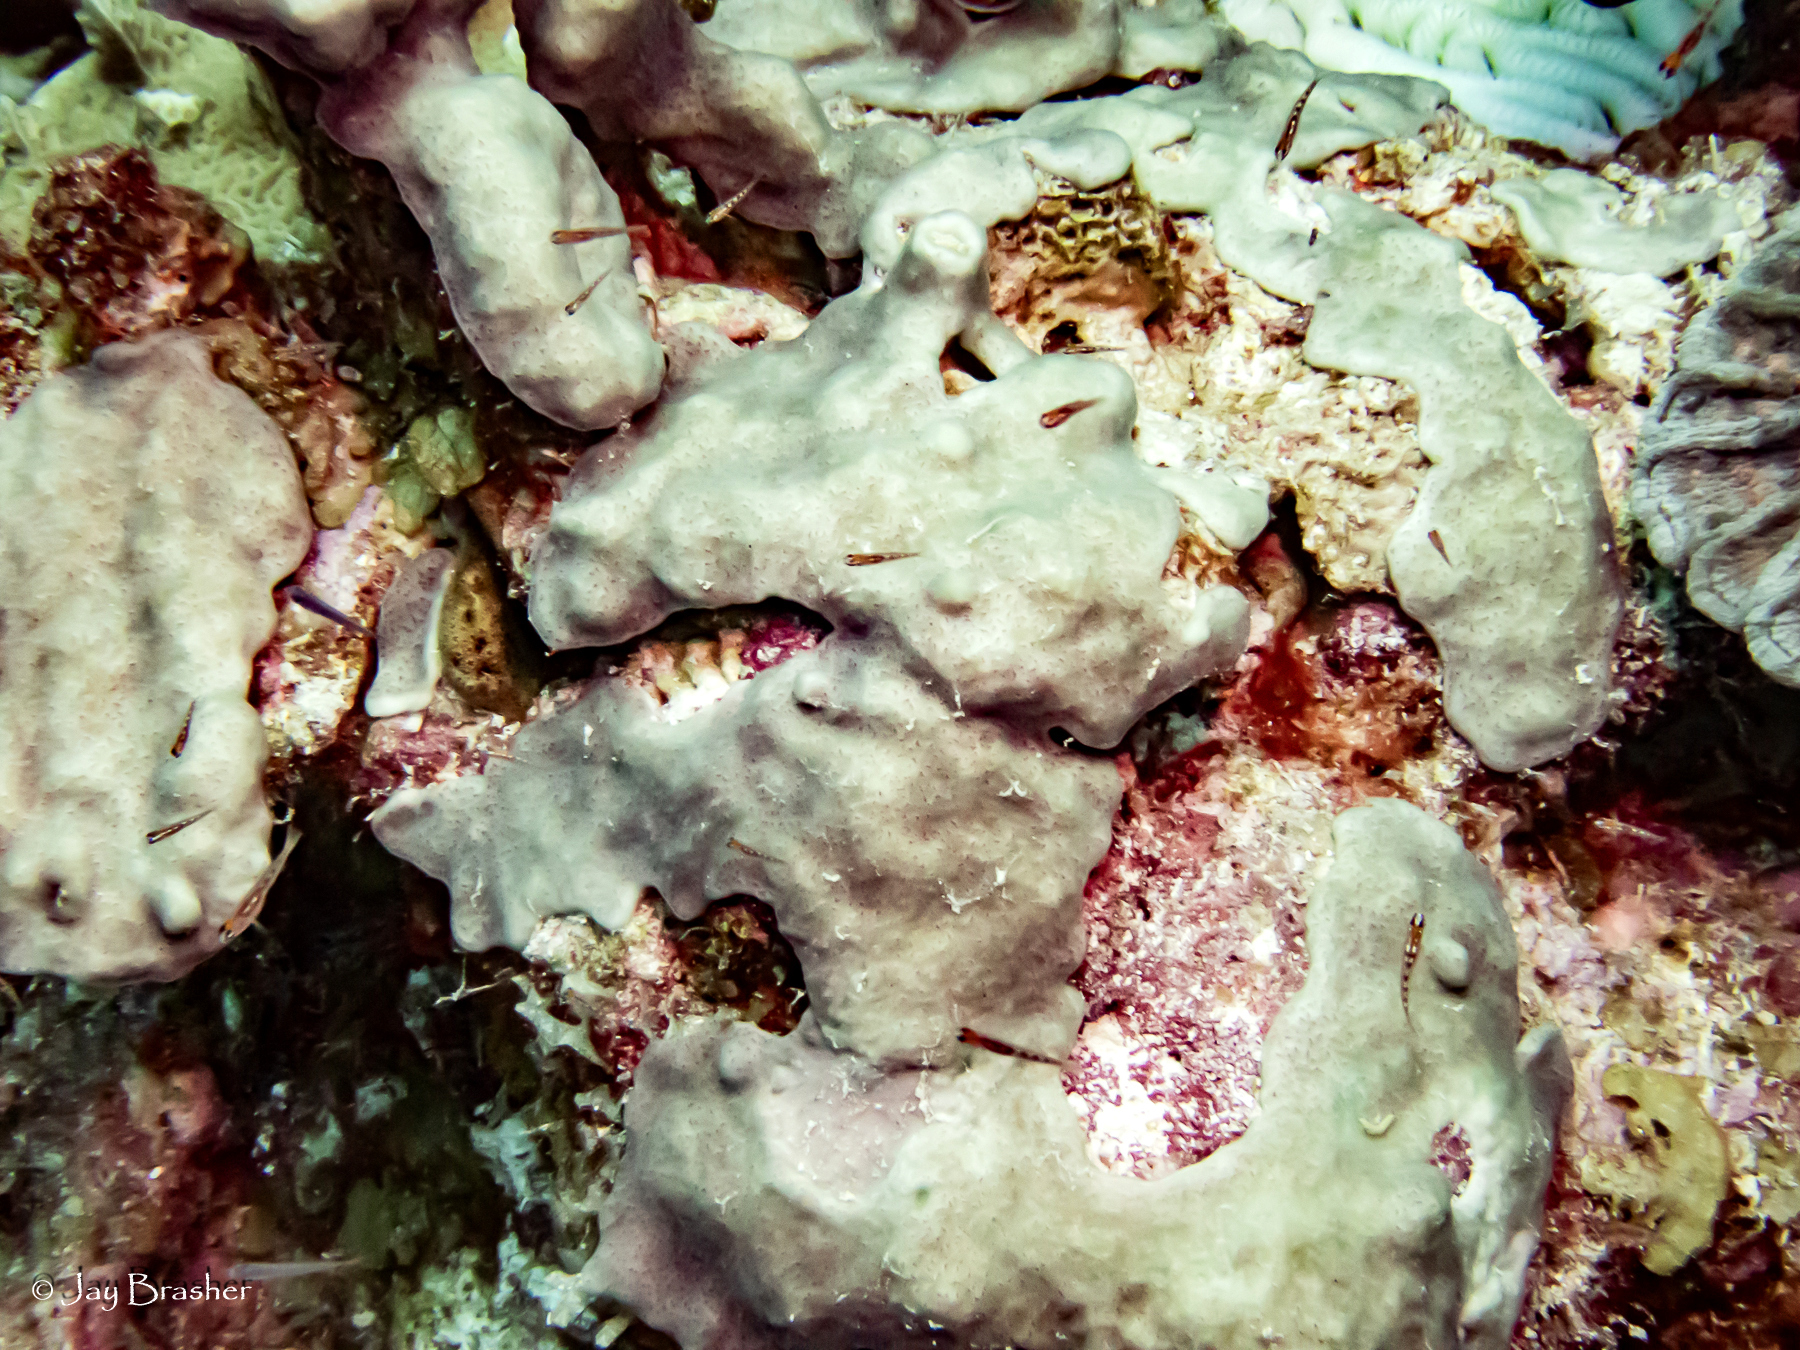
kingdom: Animalia
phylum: Chordata
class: Ascidiacea
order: Aplousobranchia
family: Didemnidae
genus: Trididemnum
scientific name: Trididemnum solidum
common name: Overgrowing mat tunicate
